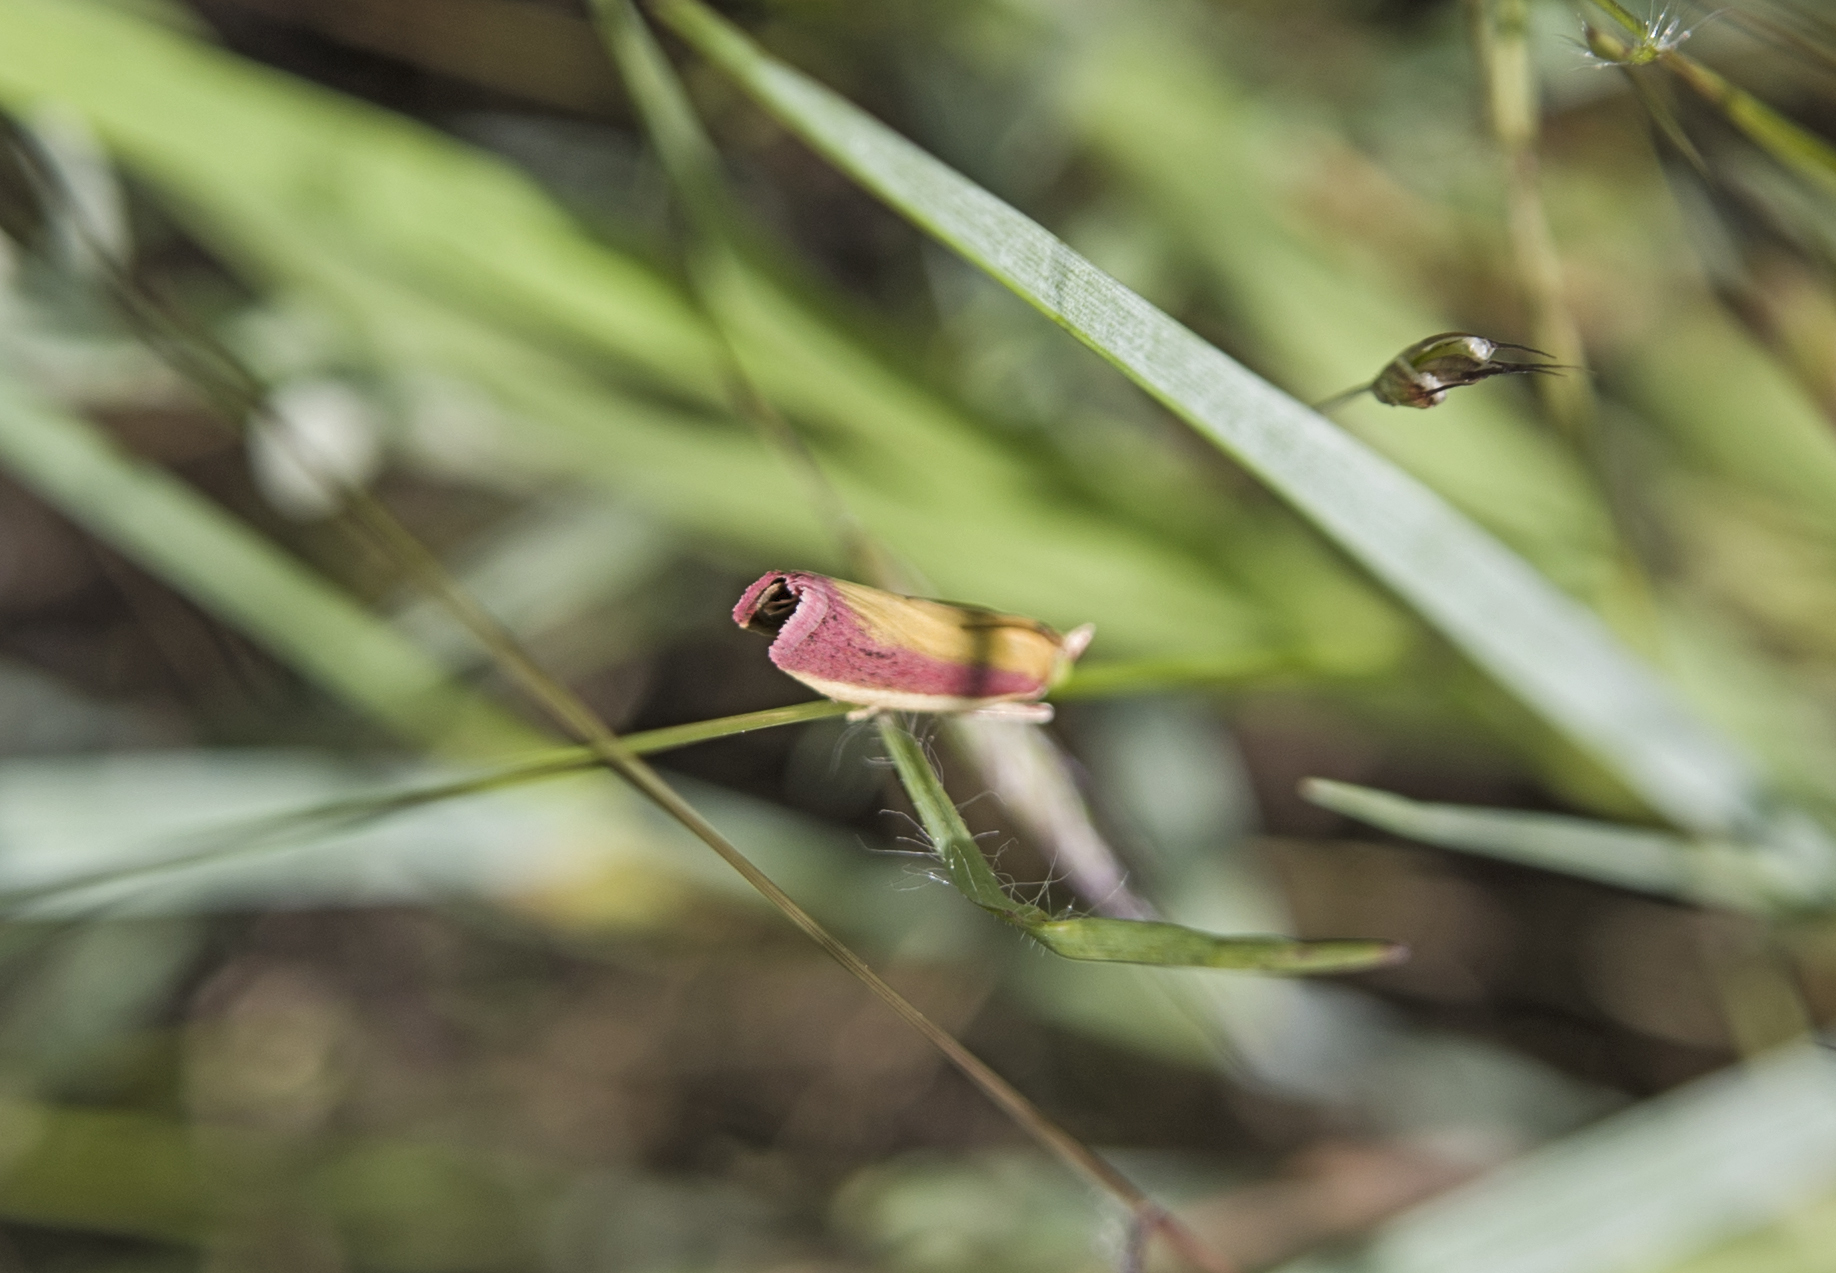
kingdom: Animalia
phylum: Arthropoda
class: Insecta
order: Lepidoptera
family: Pyralidae
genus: Oncocera
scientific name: Oncocera semirubella
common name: Rosy-striped knot-horn
